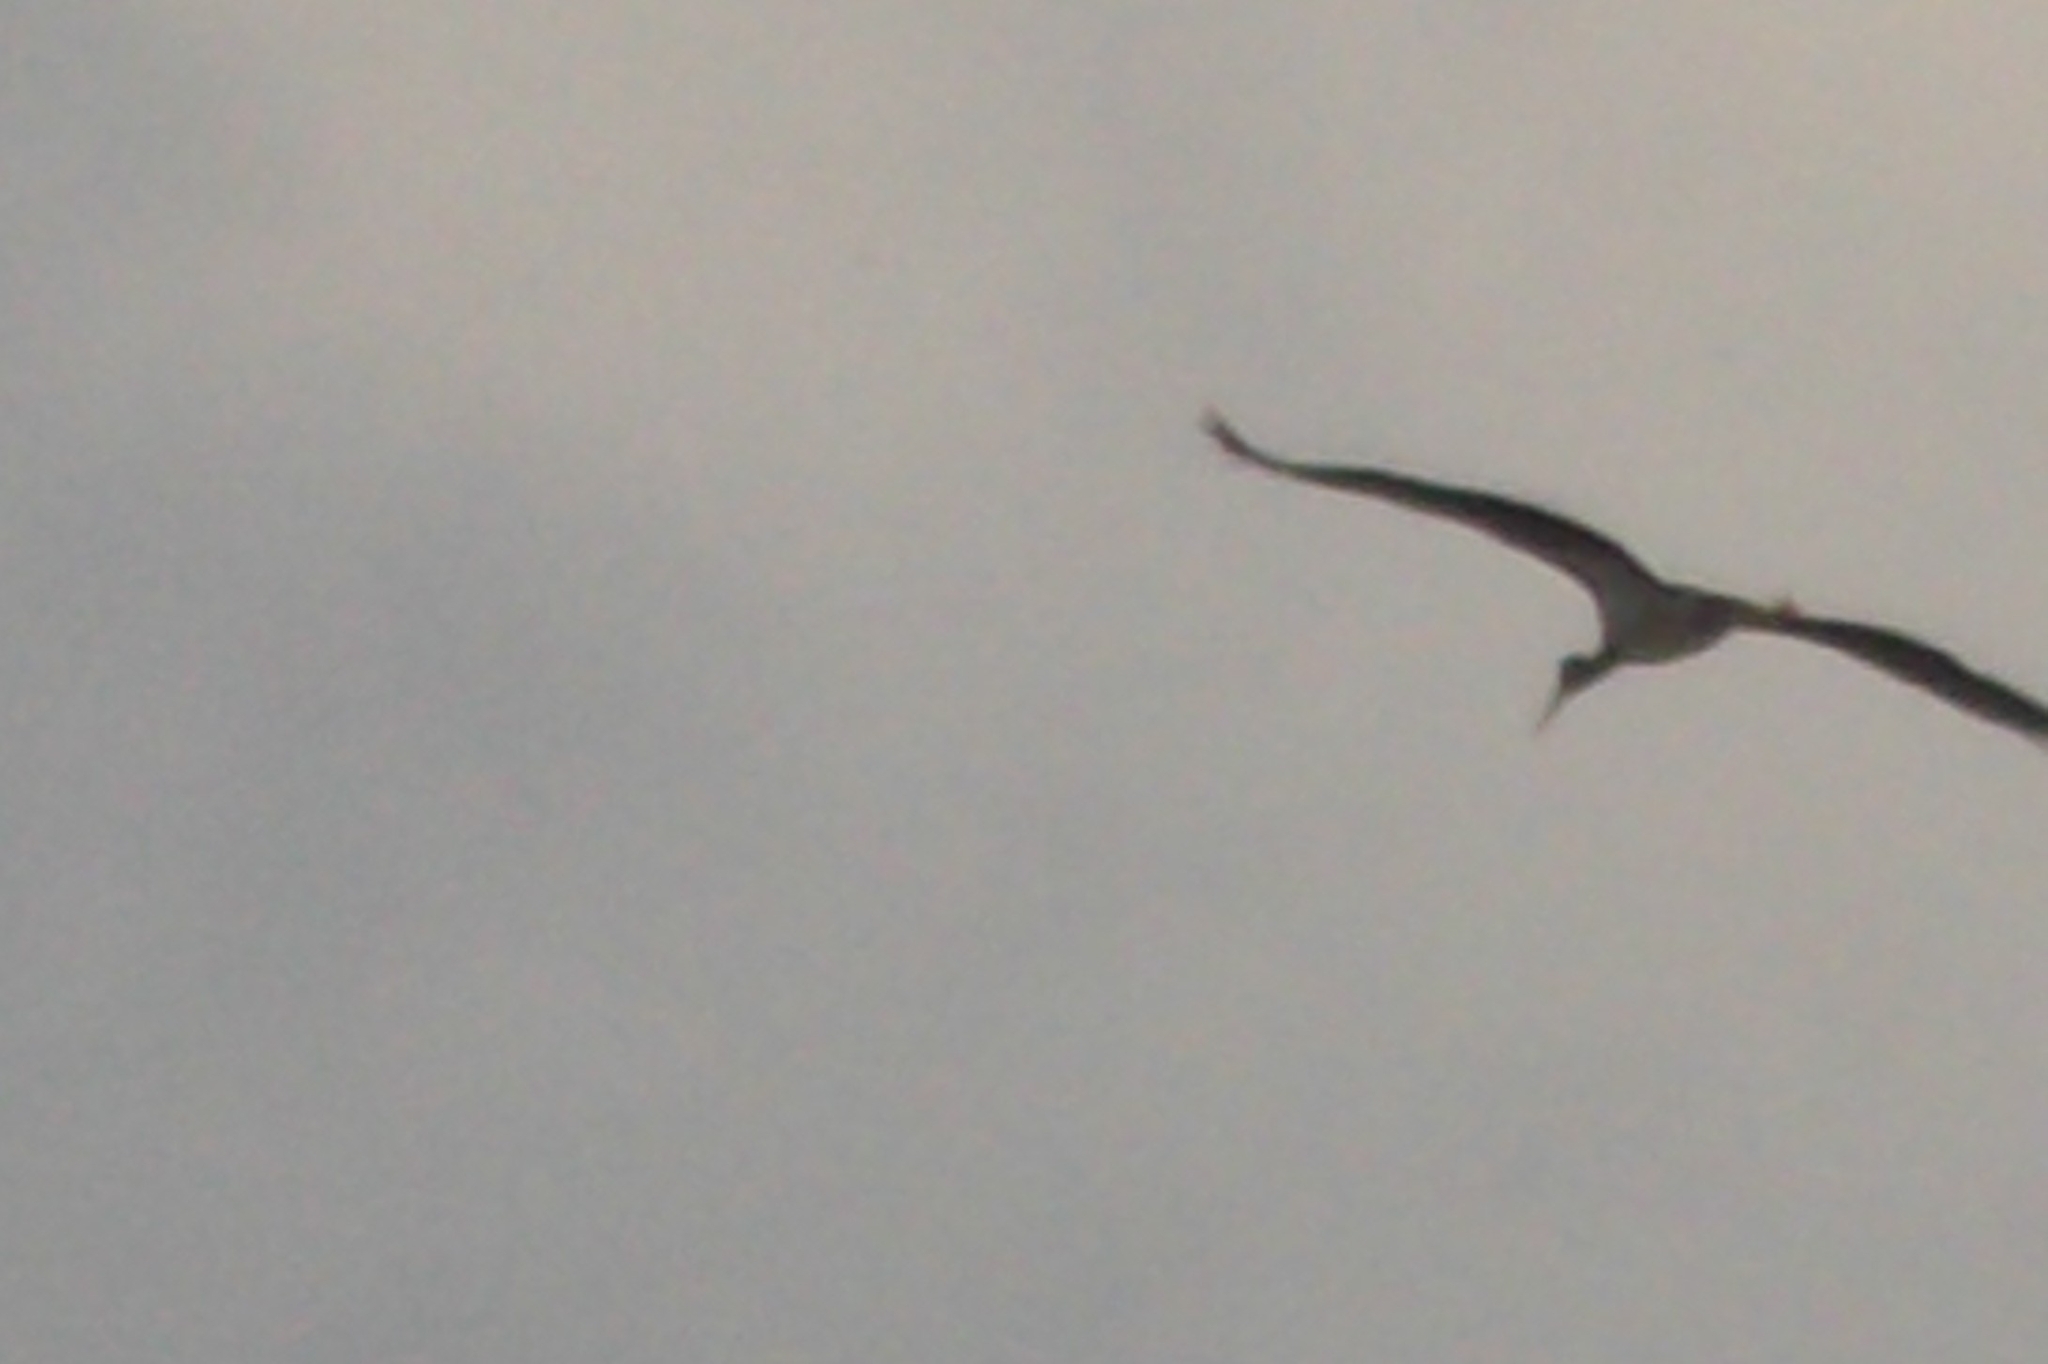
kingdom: Animalia
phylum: Chordata
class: Aves
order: Ciconiiformes
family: Ciconiidae
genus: Ciconia
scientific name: Ciconia nigra
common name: Black stork
